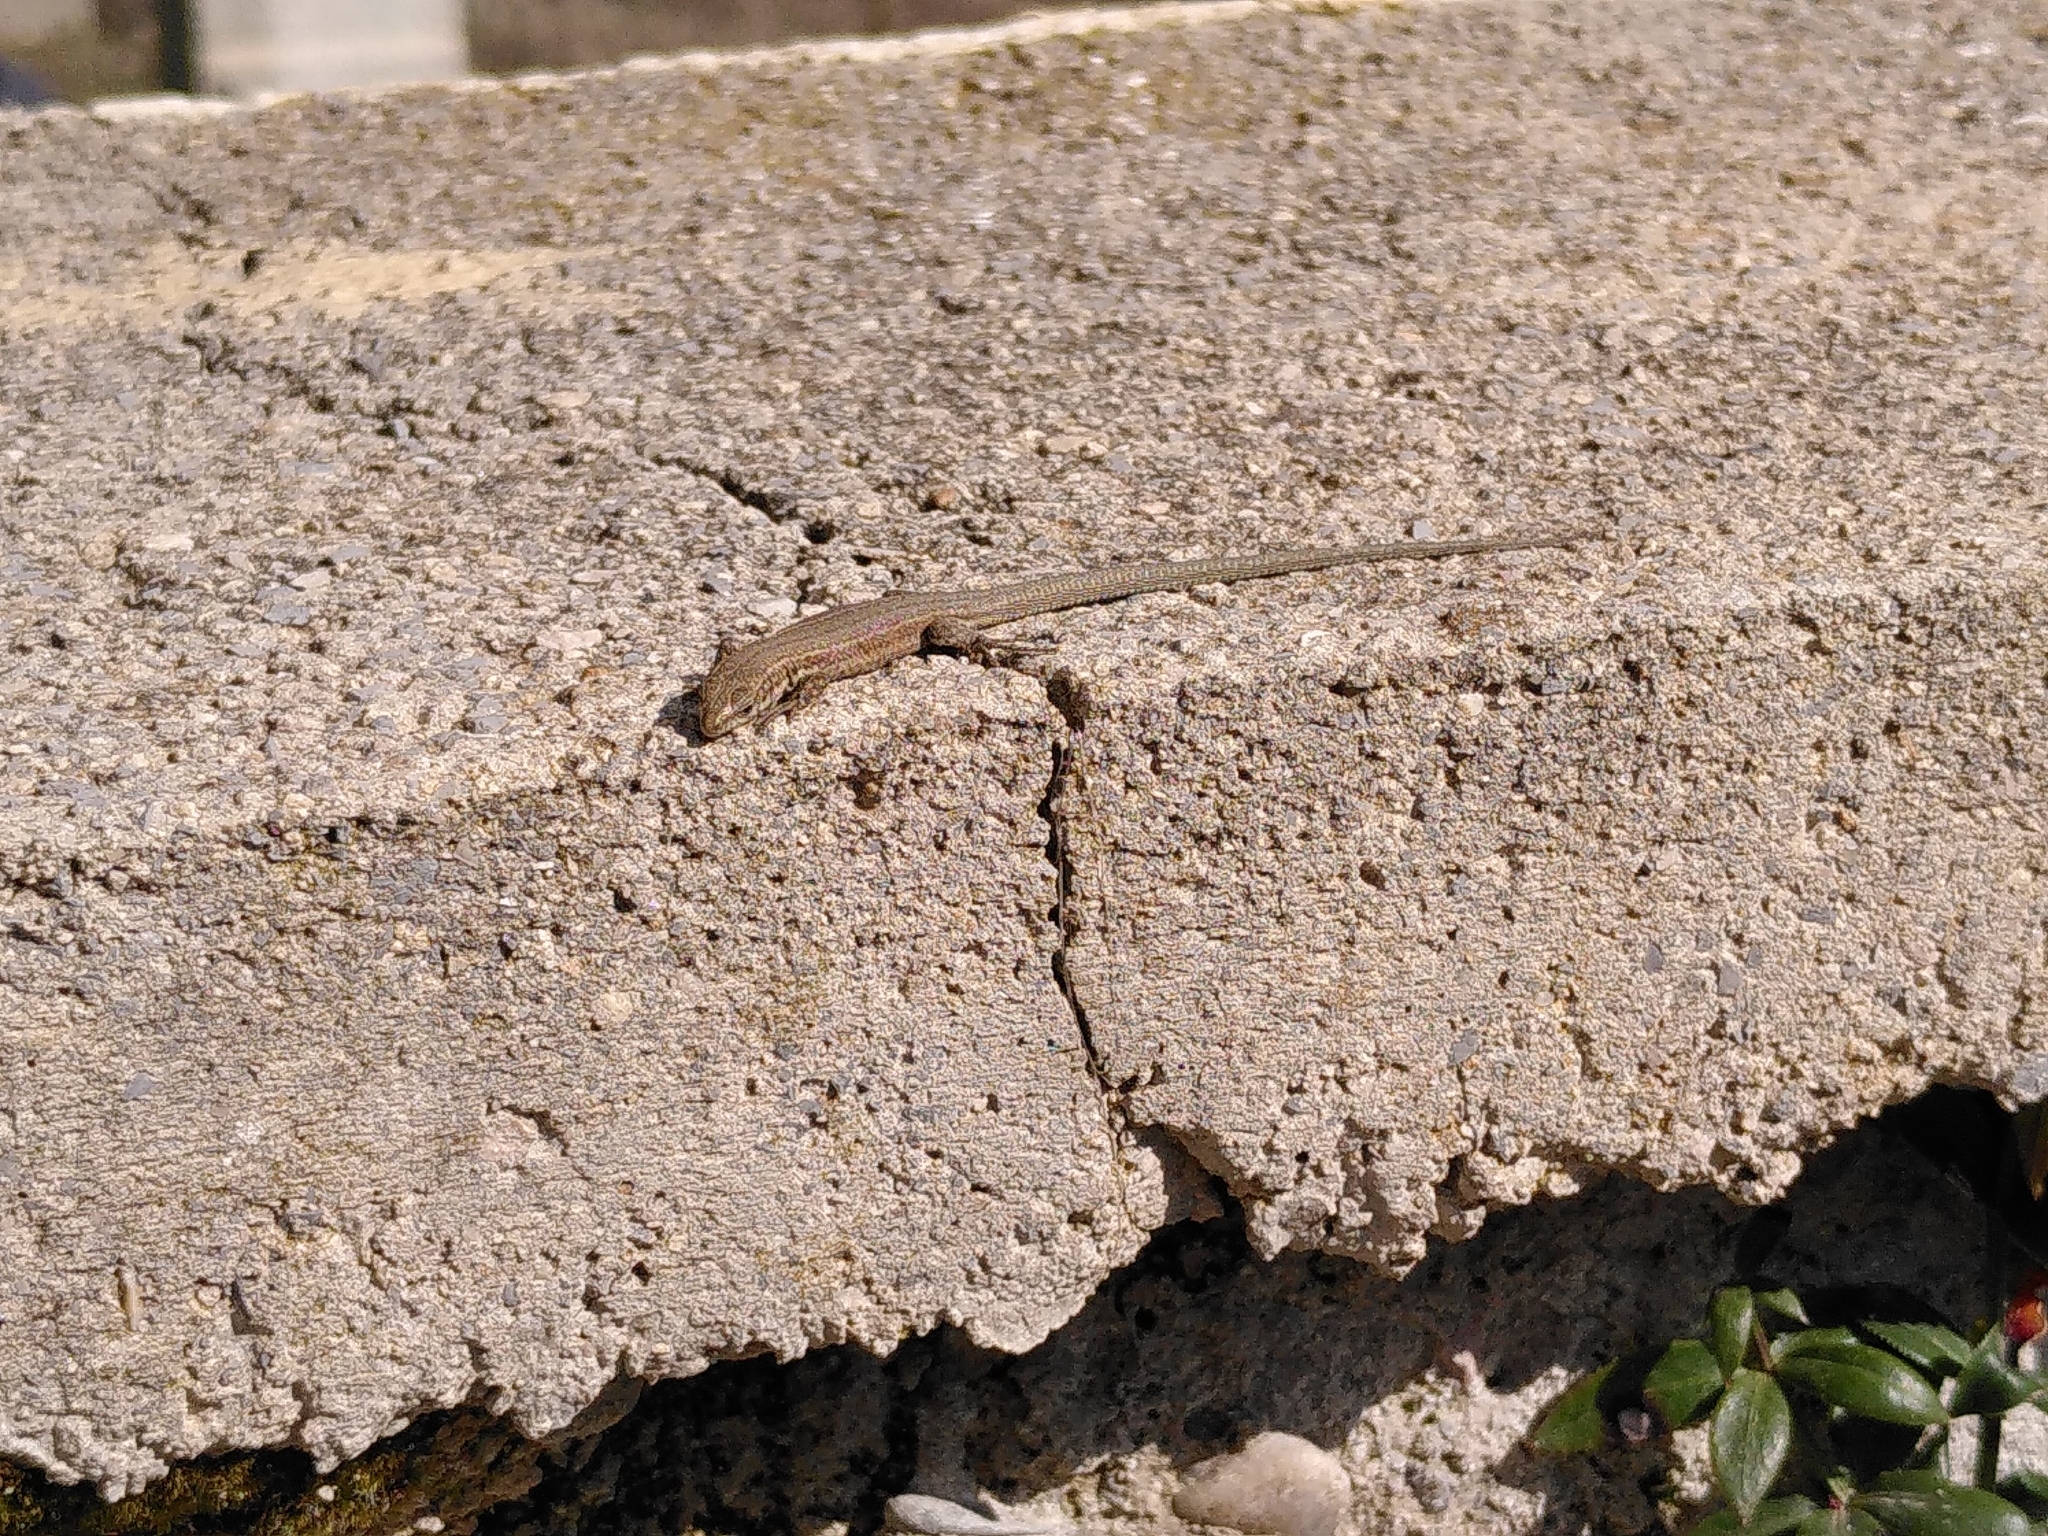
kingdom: Animalia
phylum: Chordata
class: Squamata
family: Lacertidae
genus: Podarcis
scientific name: Podarcis liolepis
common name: Catalonian wall lizard
